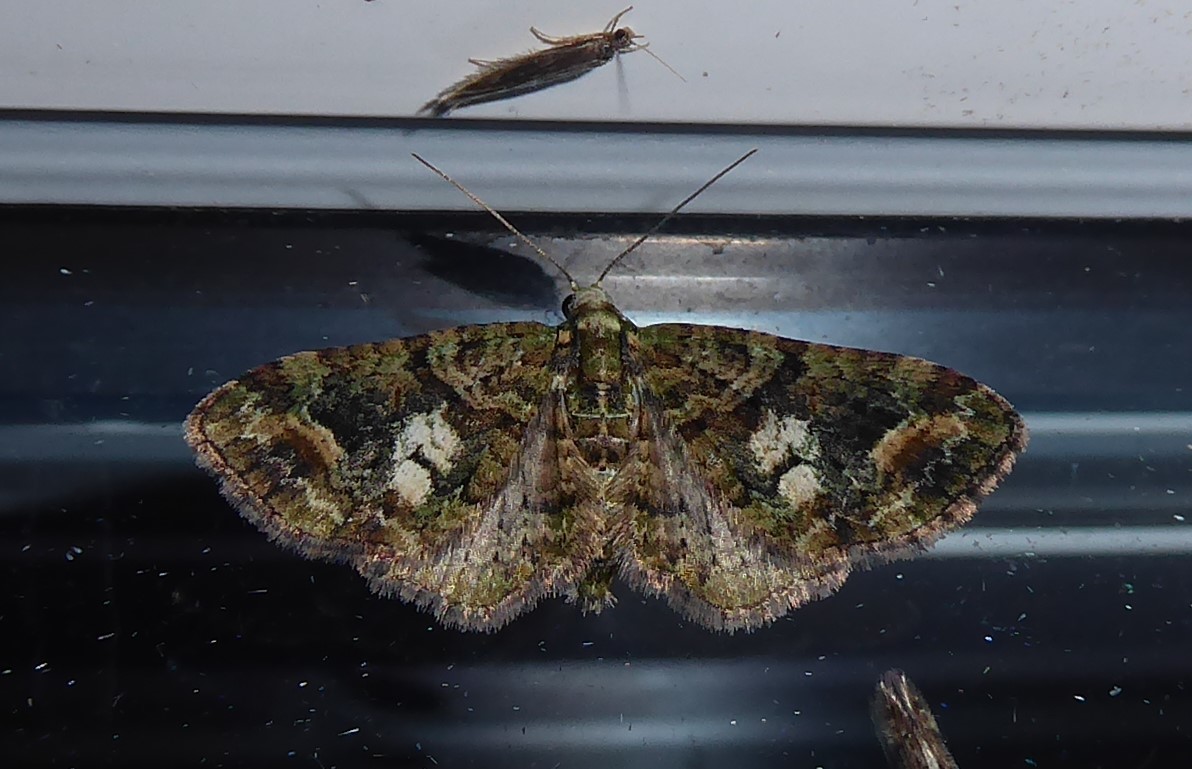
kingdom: Animalia
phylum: Arthropoda
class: Insecta
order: Lepidoptera
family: Geometridae
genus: Idaea
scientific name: Idaea mutanda
